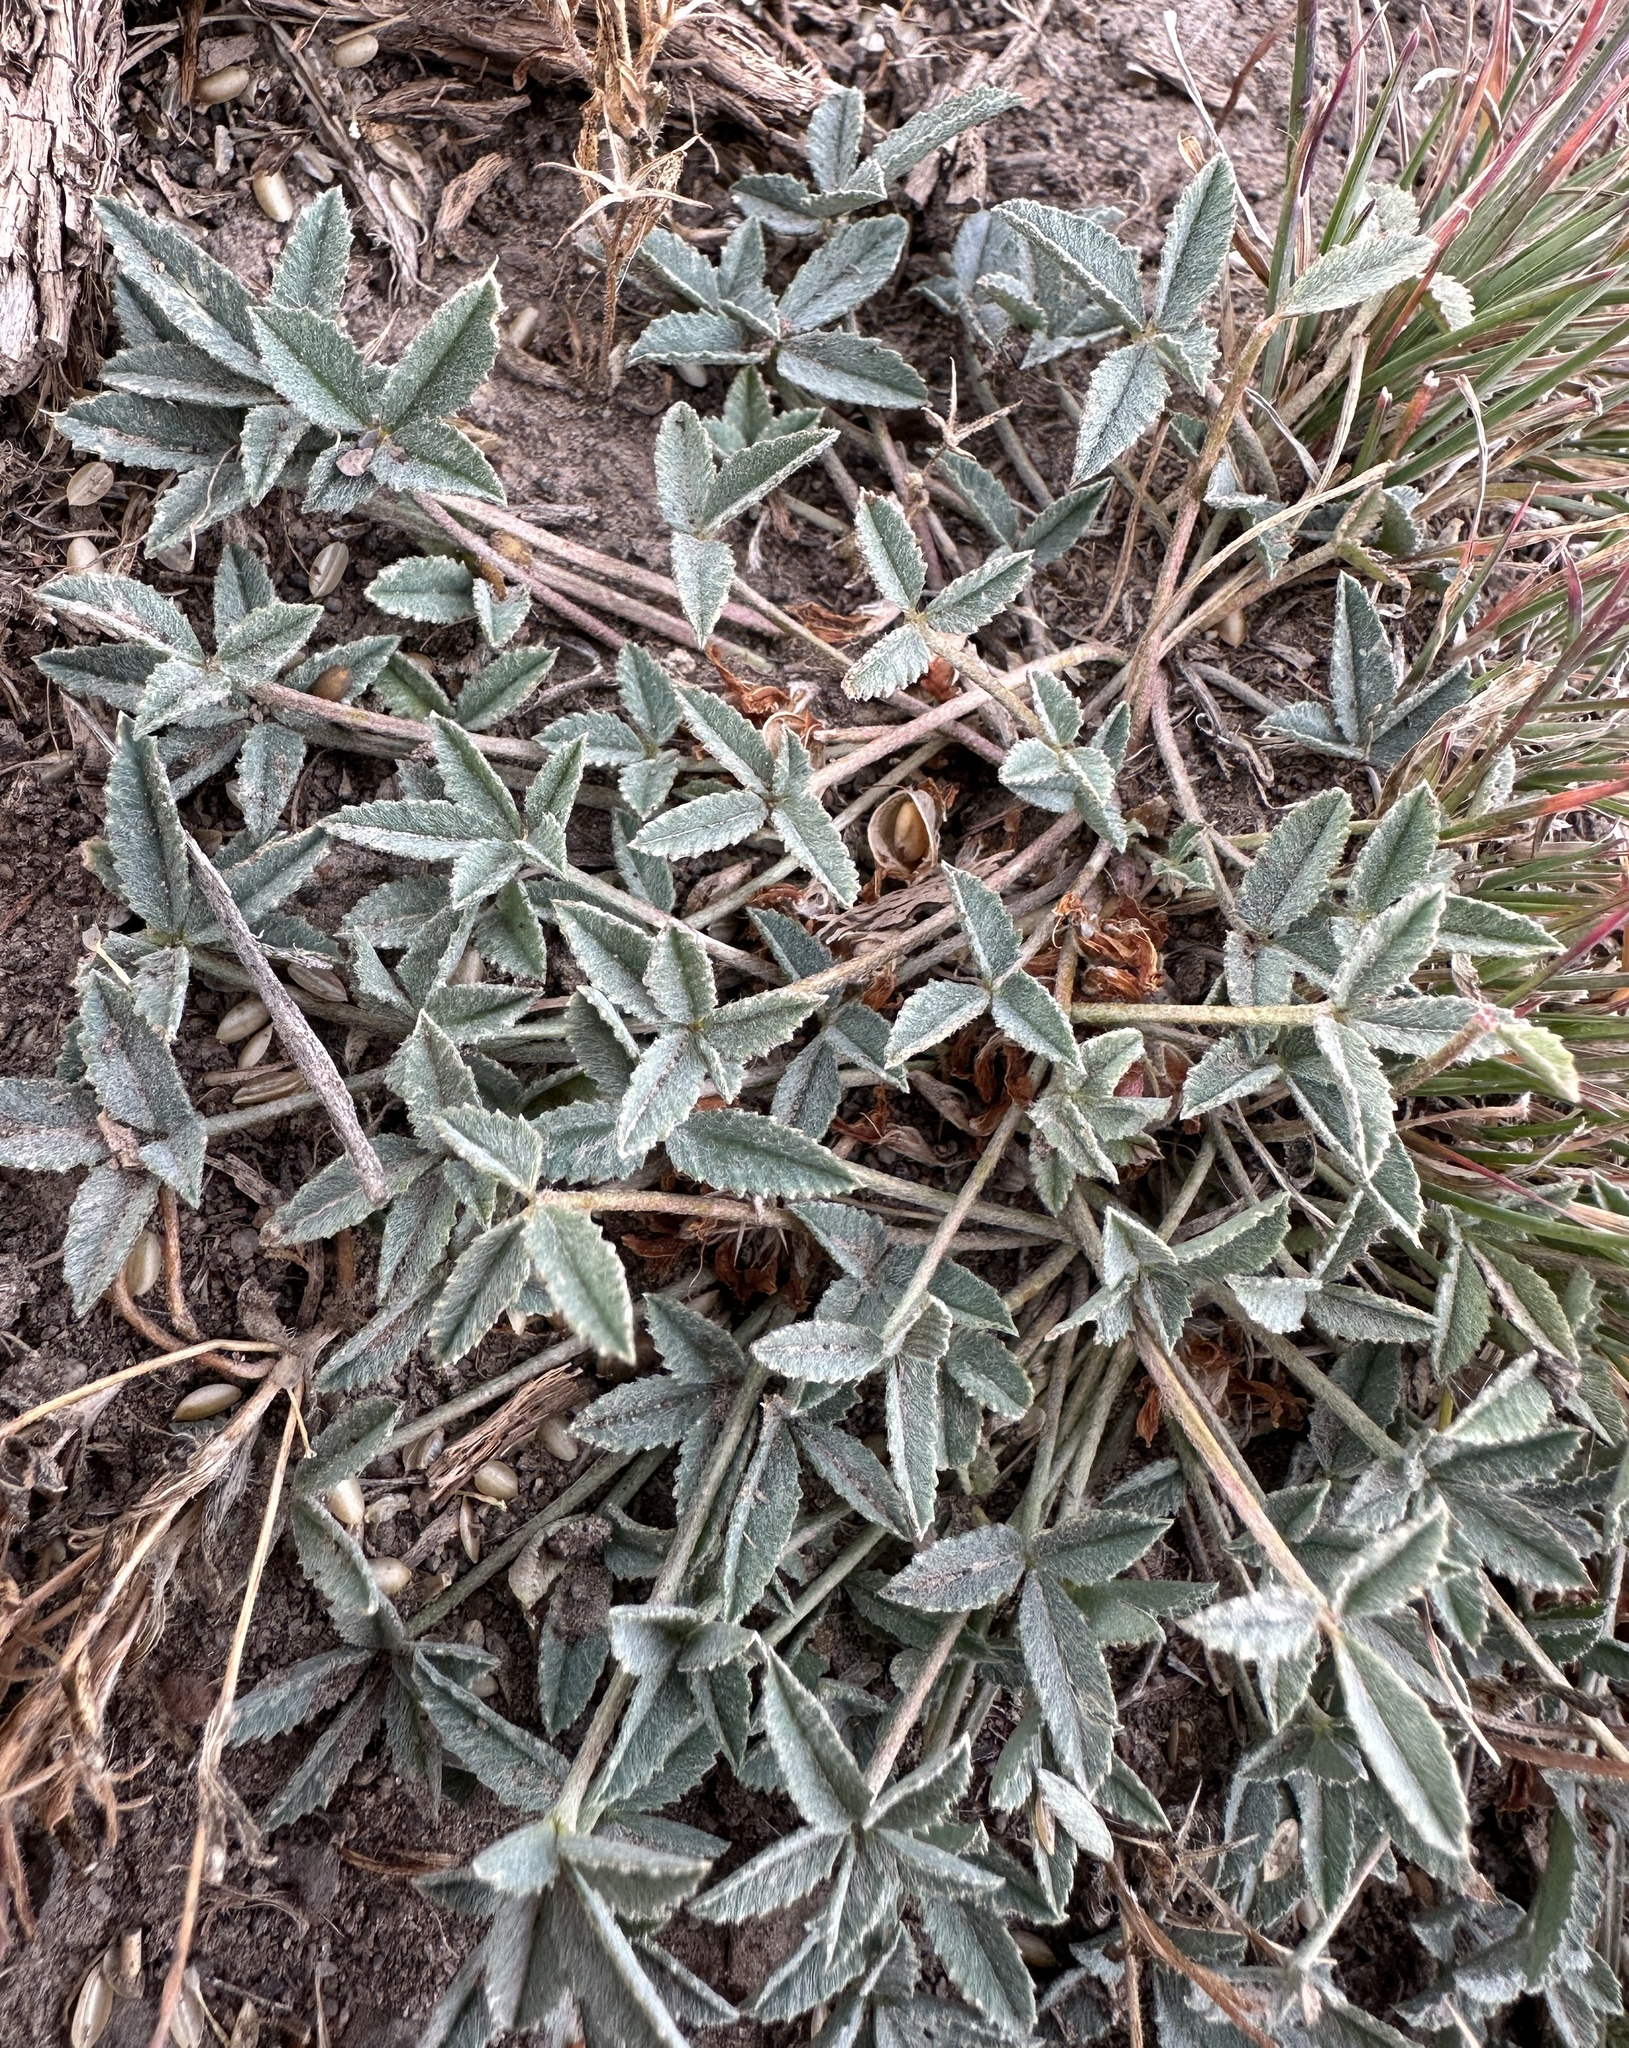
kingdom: Plantae
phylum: Tracheophyta
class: Magnoliopsida
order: Fabales
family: Fabaceae
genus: Trifolium
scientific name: Trifolium gymnocarpon
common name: Tufted clover
